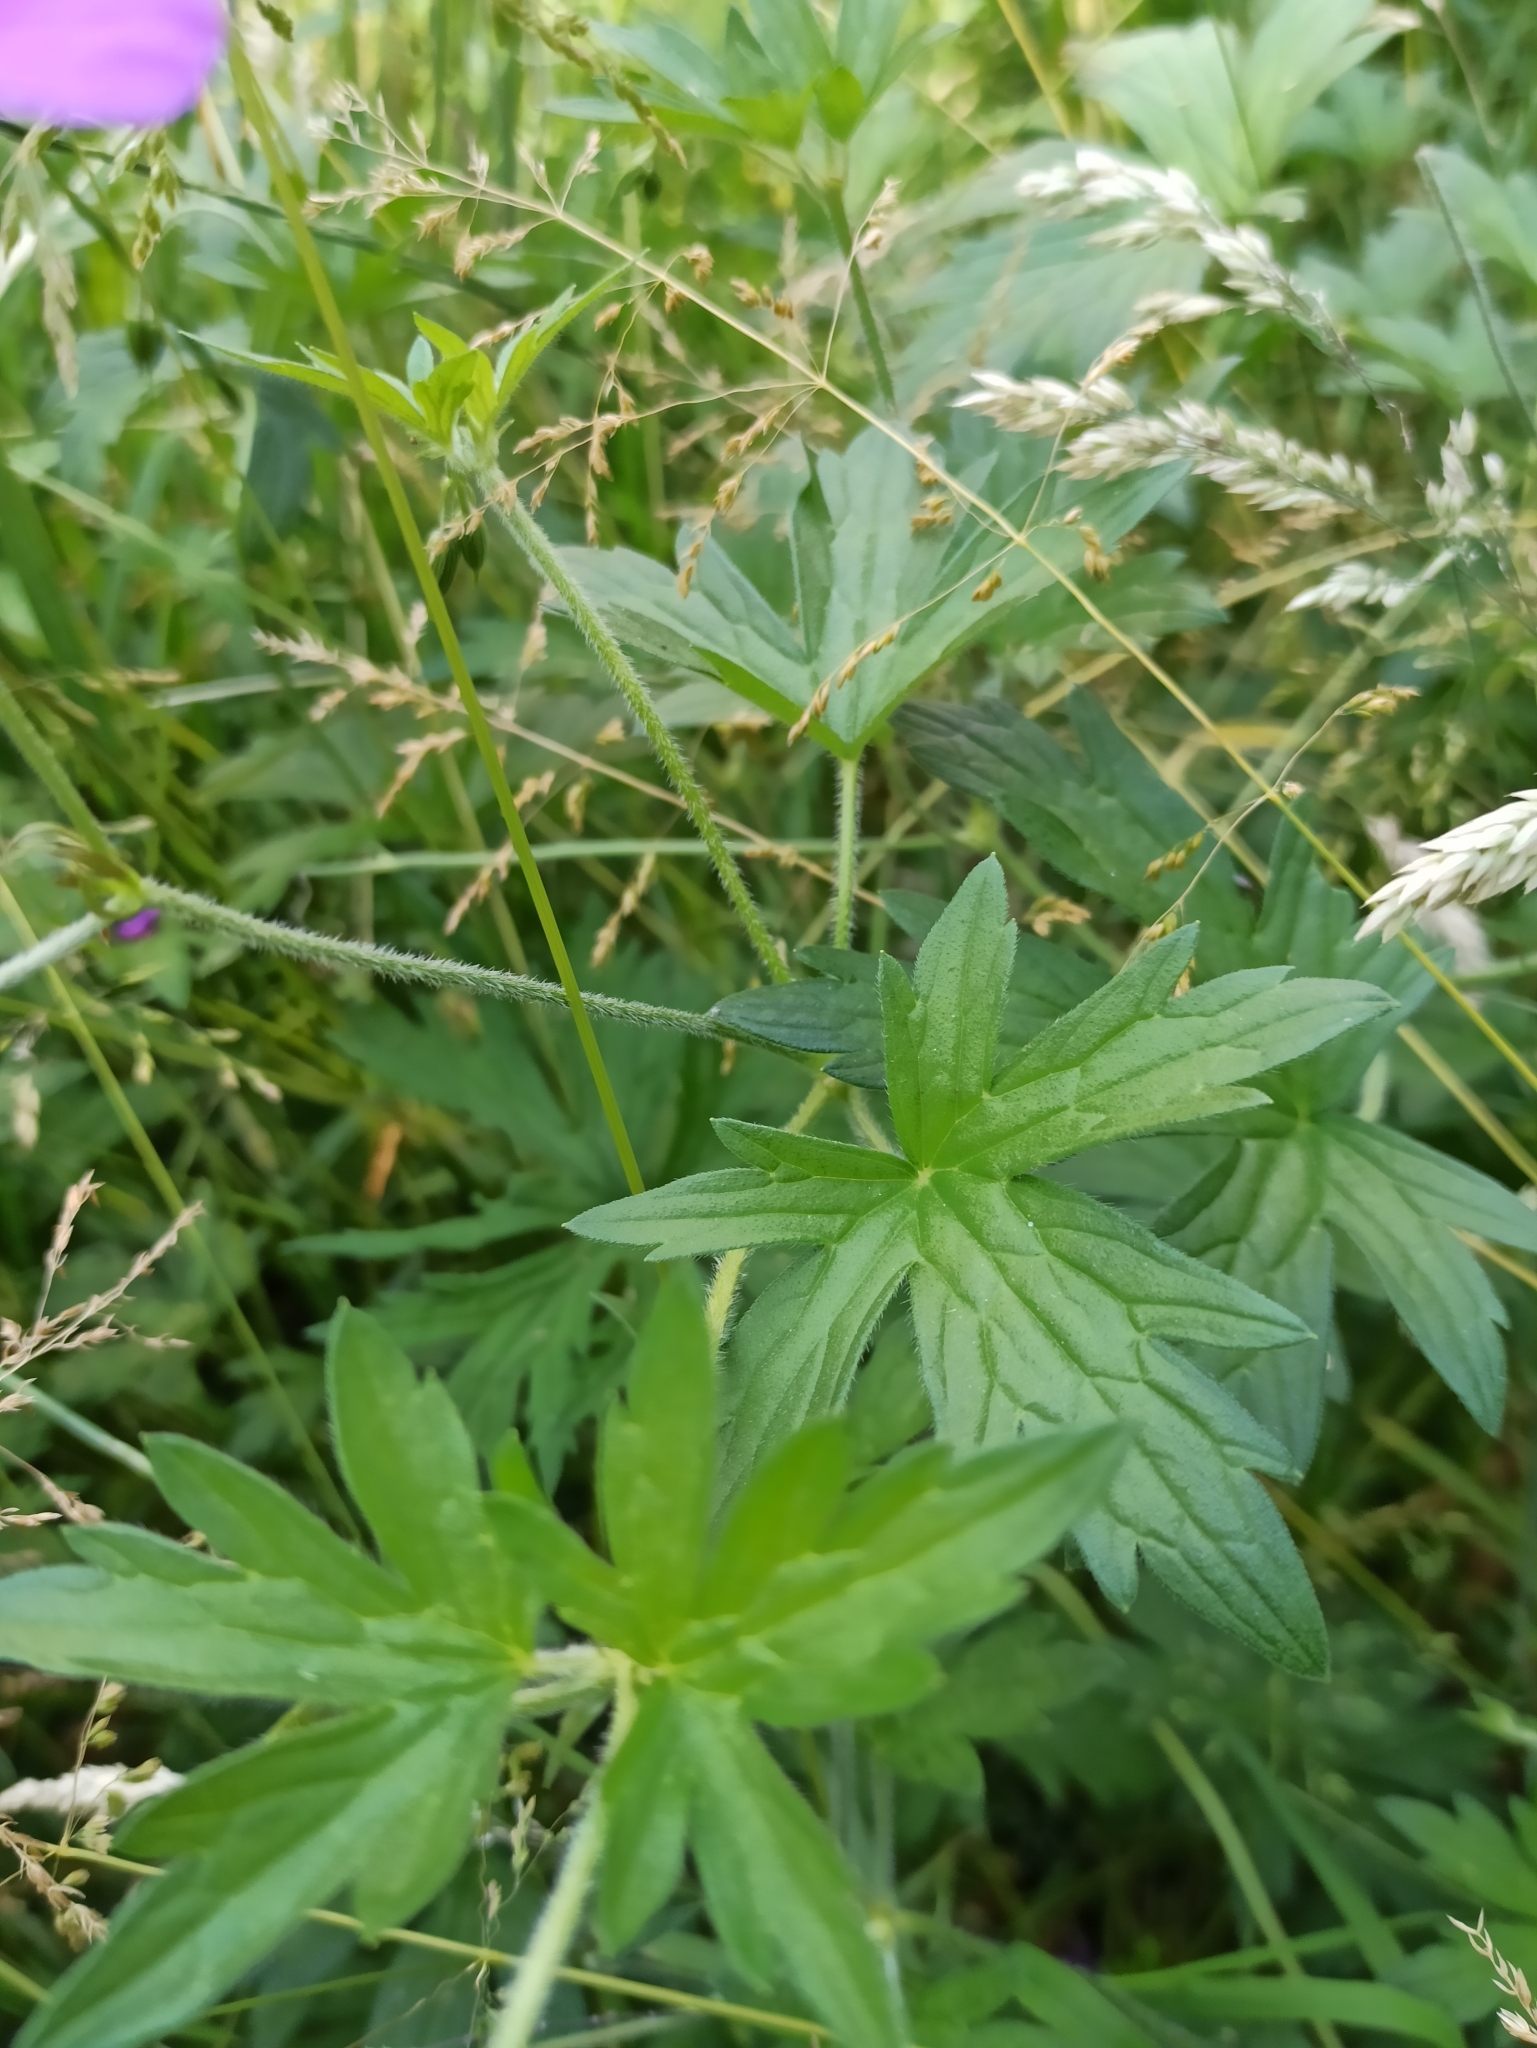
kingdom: Plantae
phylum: Tracheophyta
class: Magnoliopsida
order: Geraniales
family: Geraniaceae
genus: Geranium
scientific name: Geranium palustre
